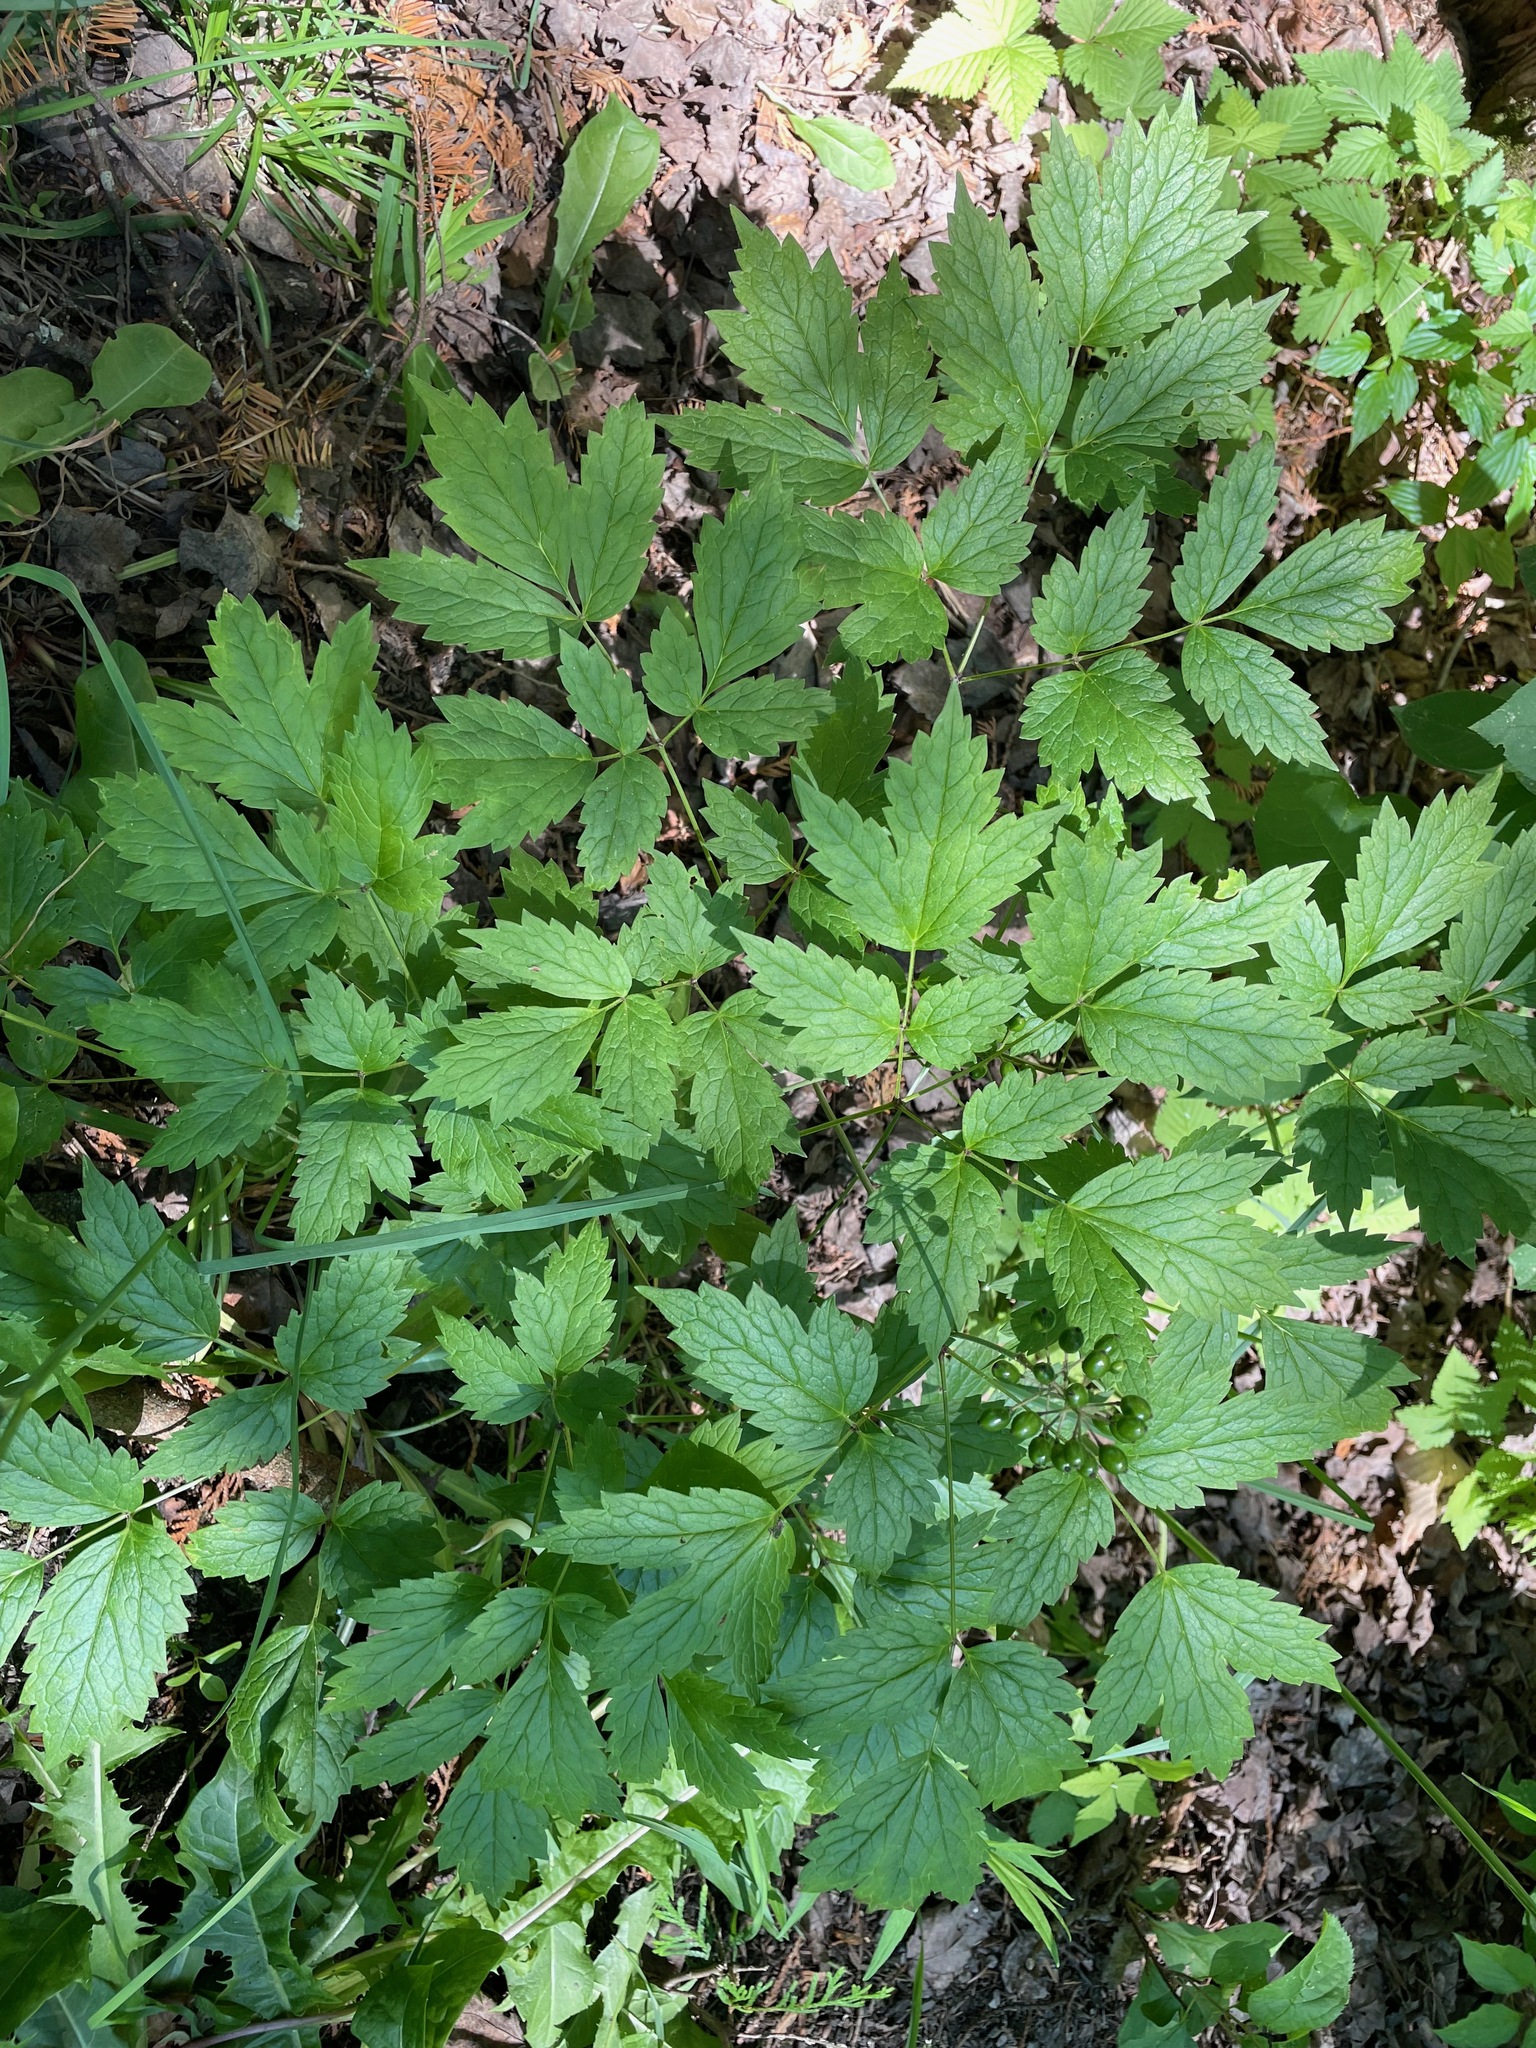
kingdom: Plantae
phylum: Tracheophyta
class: Magnoliopsida
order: Ranunculales
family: Ranunculaceae
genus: Actaea
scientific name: Actaea rubra
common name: Red baneberry
